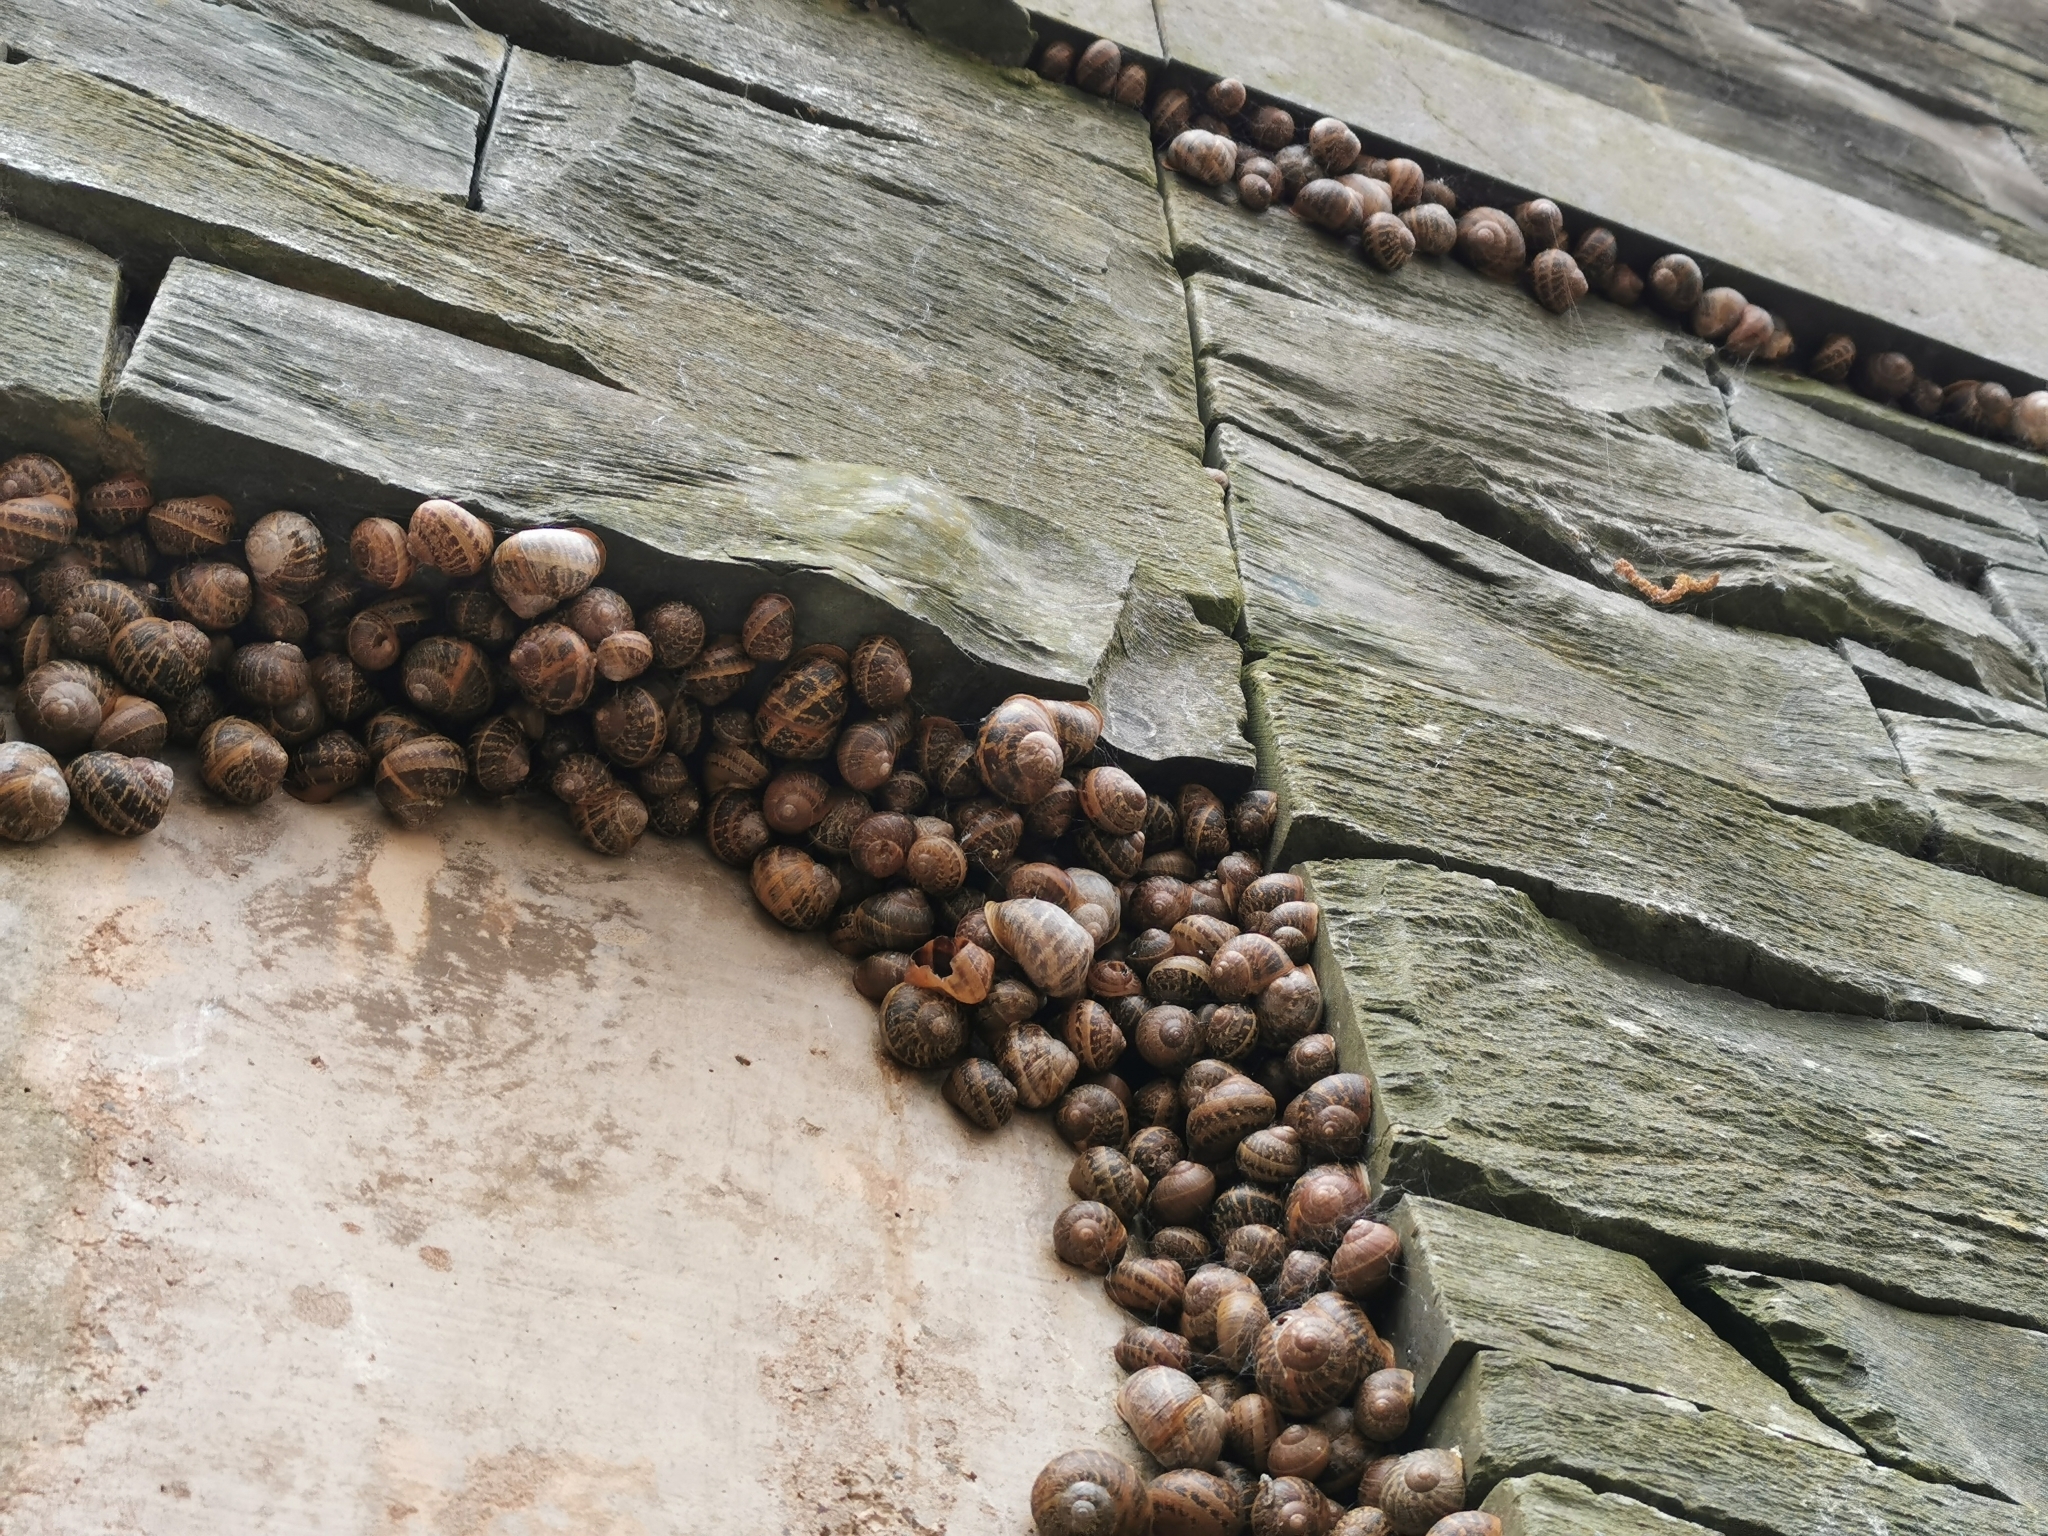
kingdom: Animalia
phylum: Mollusca
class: Gastropoda
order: Stylommatophora
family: Helicidae
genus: Cornu
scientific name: Cornu aspersum
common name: Brown garden snail
